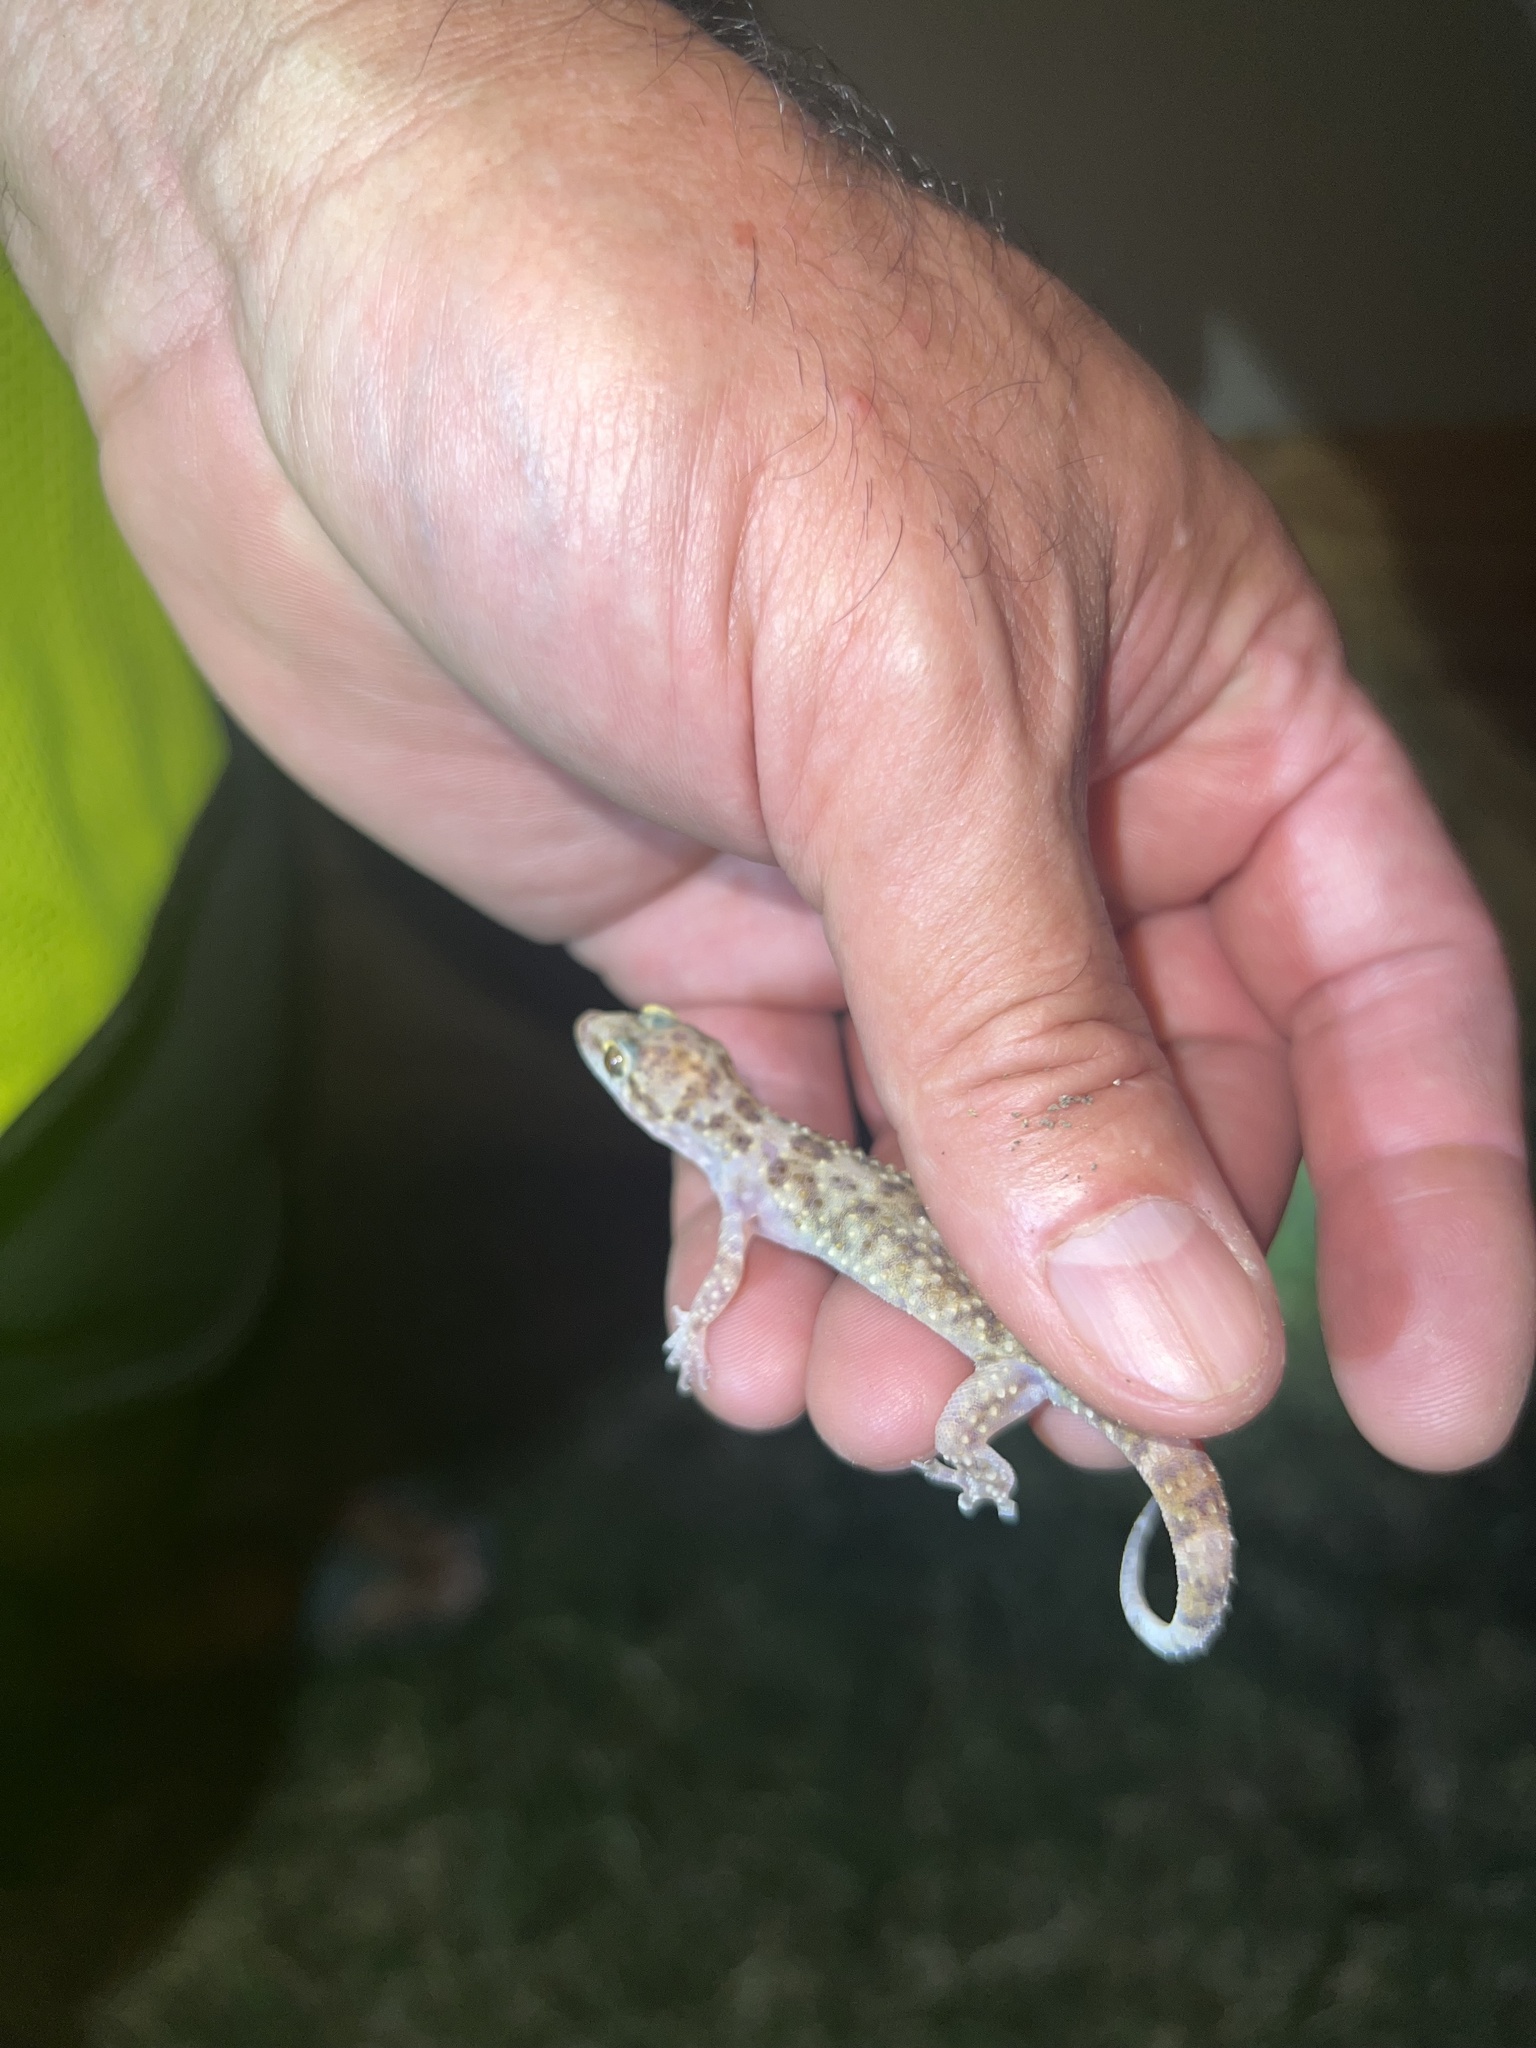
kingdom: Animalia
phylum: Chordata
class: Squamata
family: Gekkonidae
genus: Hemidactylus
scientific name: Hemidactylus turcicus
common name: Turkish gecko
